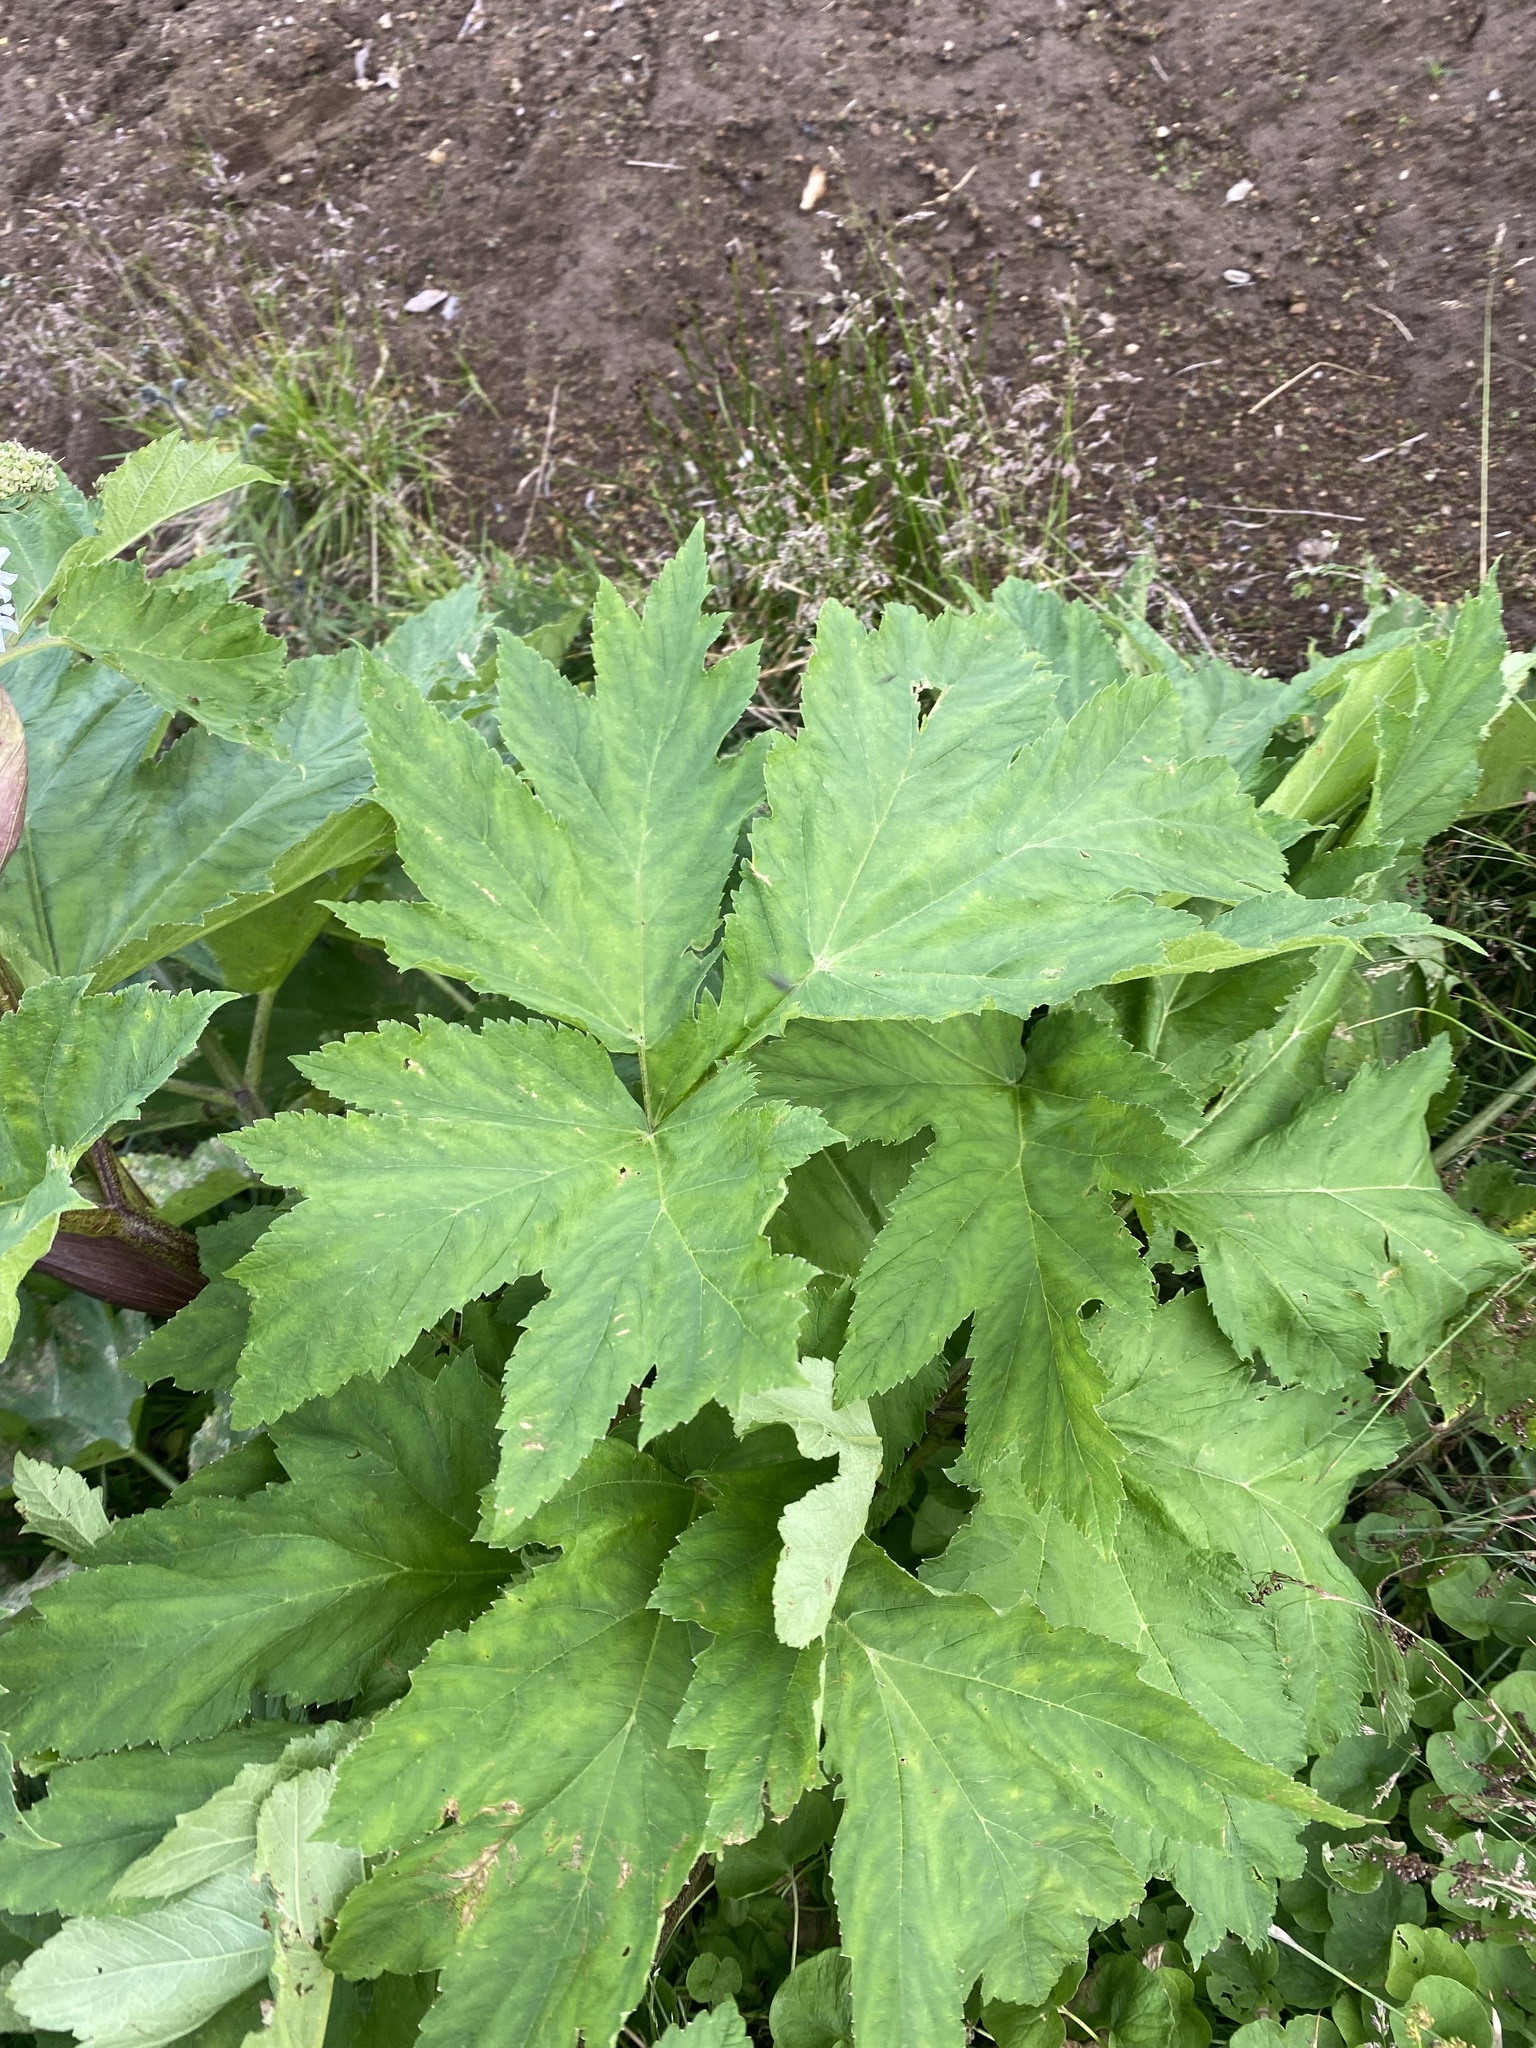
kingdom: Plantae
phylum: Tracheophyta
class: Magnoliopsida
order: Apiales
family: Apiaceae
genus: Heracleum
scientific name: Heracleum maximum
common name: American cow parsnip
